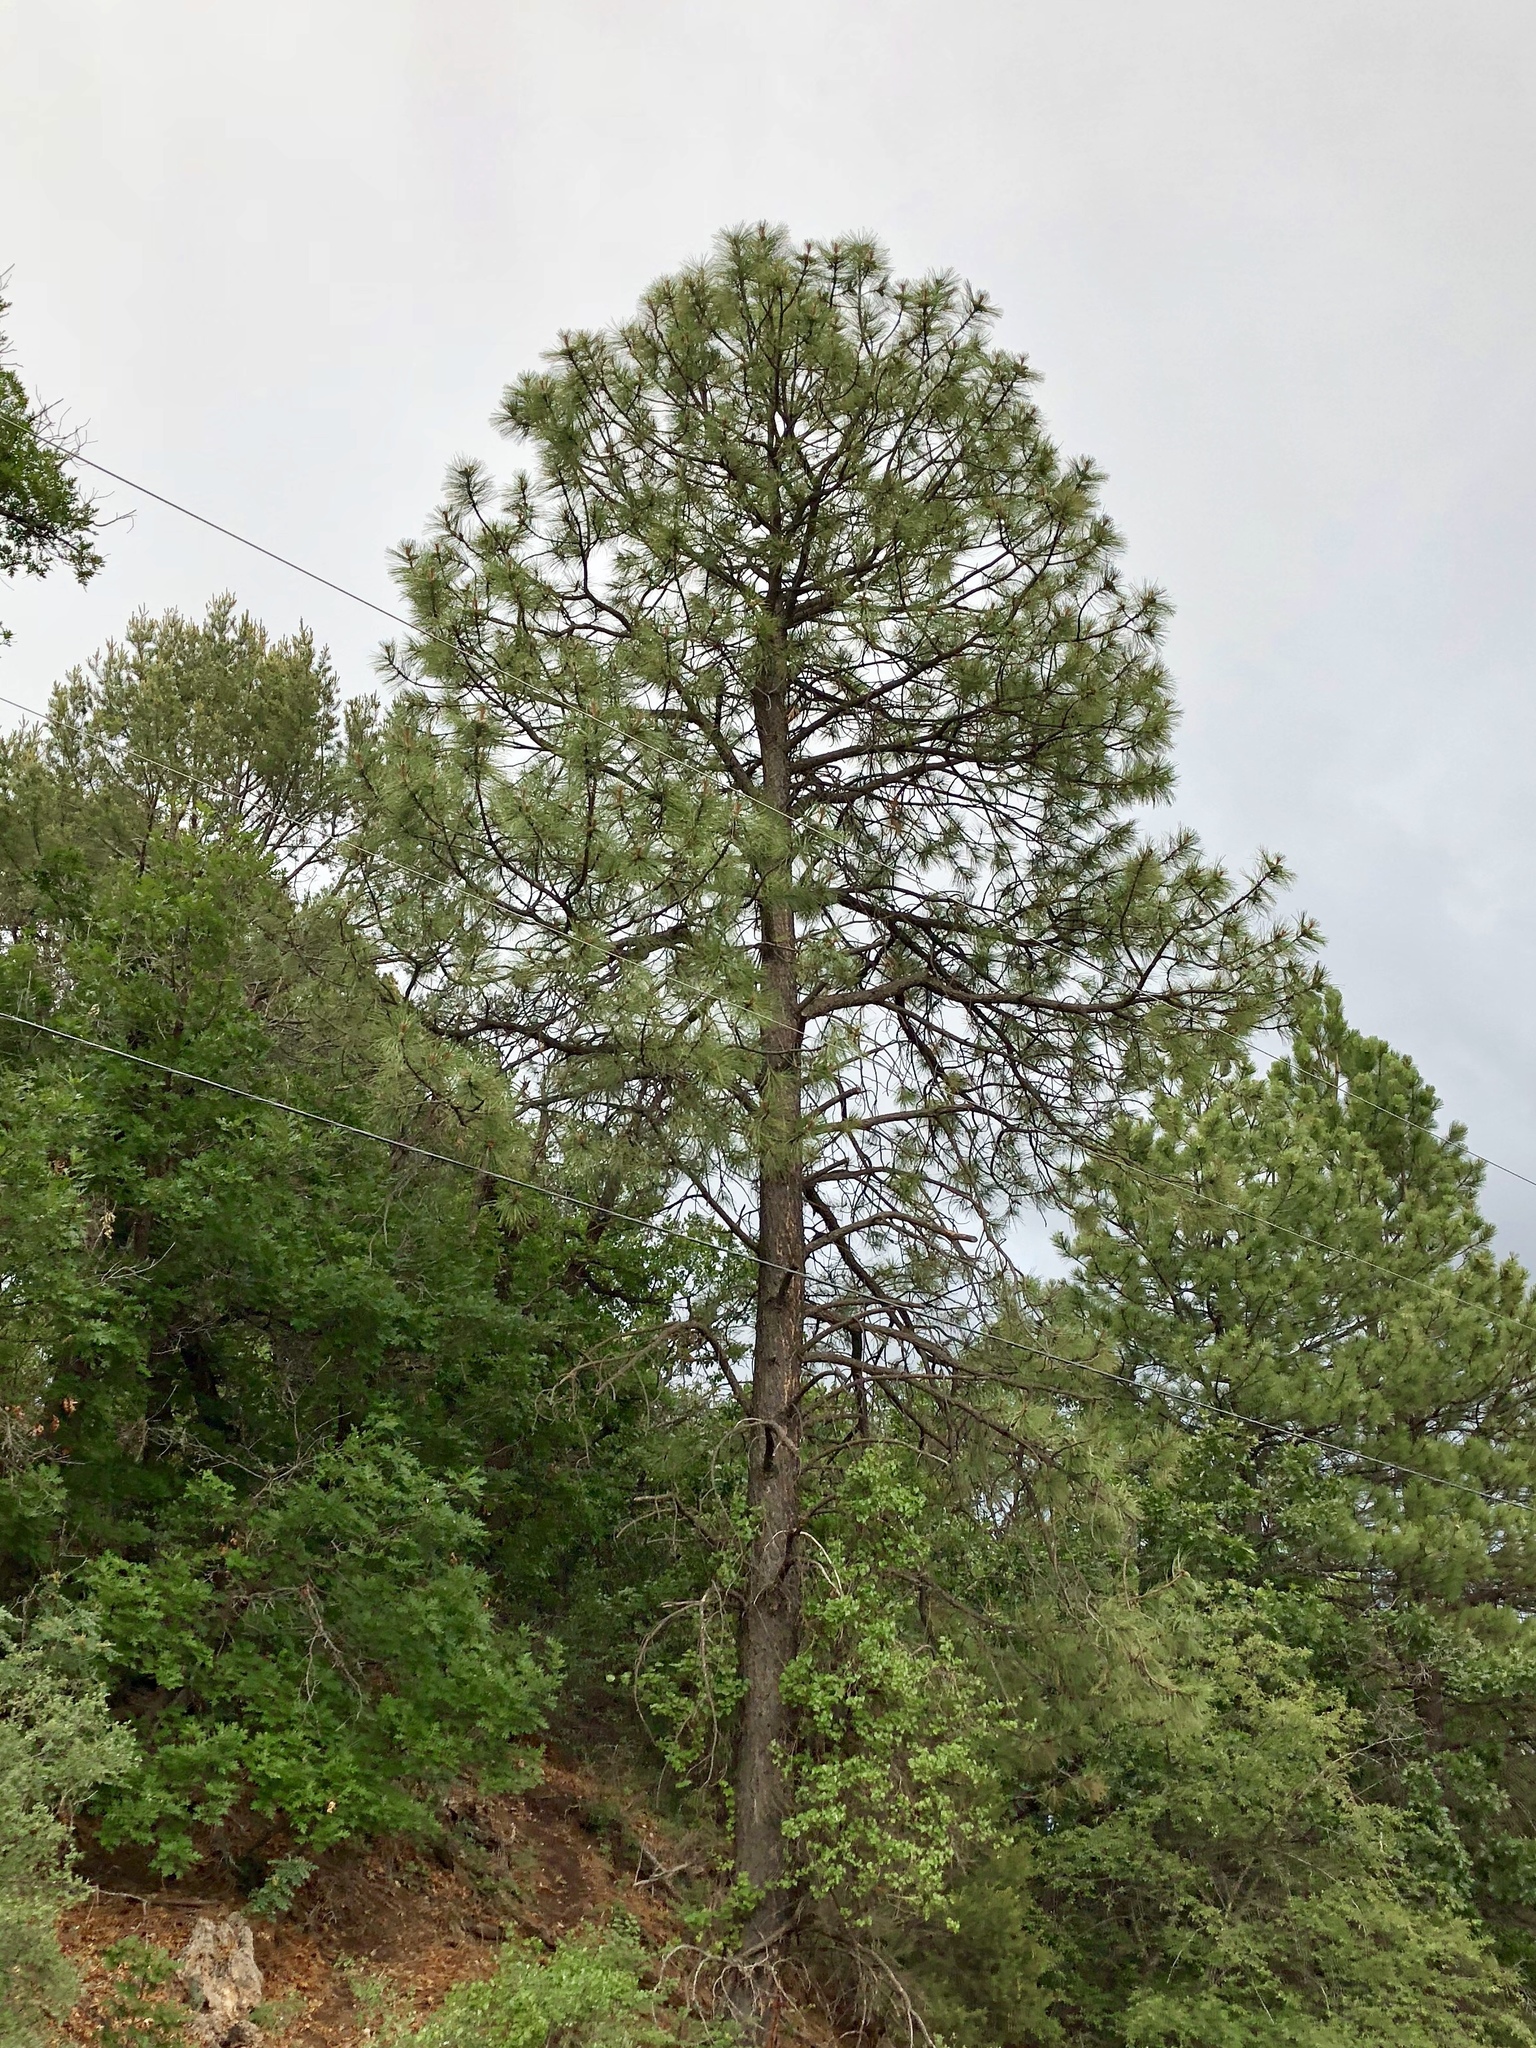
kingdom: Plantae
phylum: Tracheophyta
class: Pinopsida
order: Pinales
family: Pinaceae
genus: Pinus
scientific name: Pinus ponderosa
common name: Western yellow-pine
